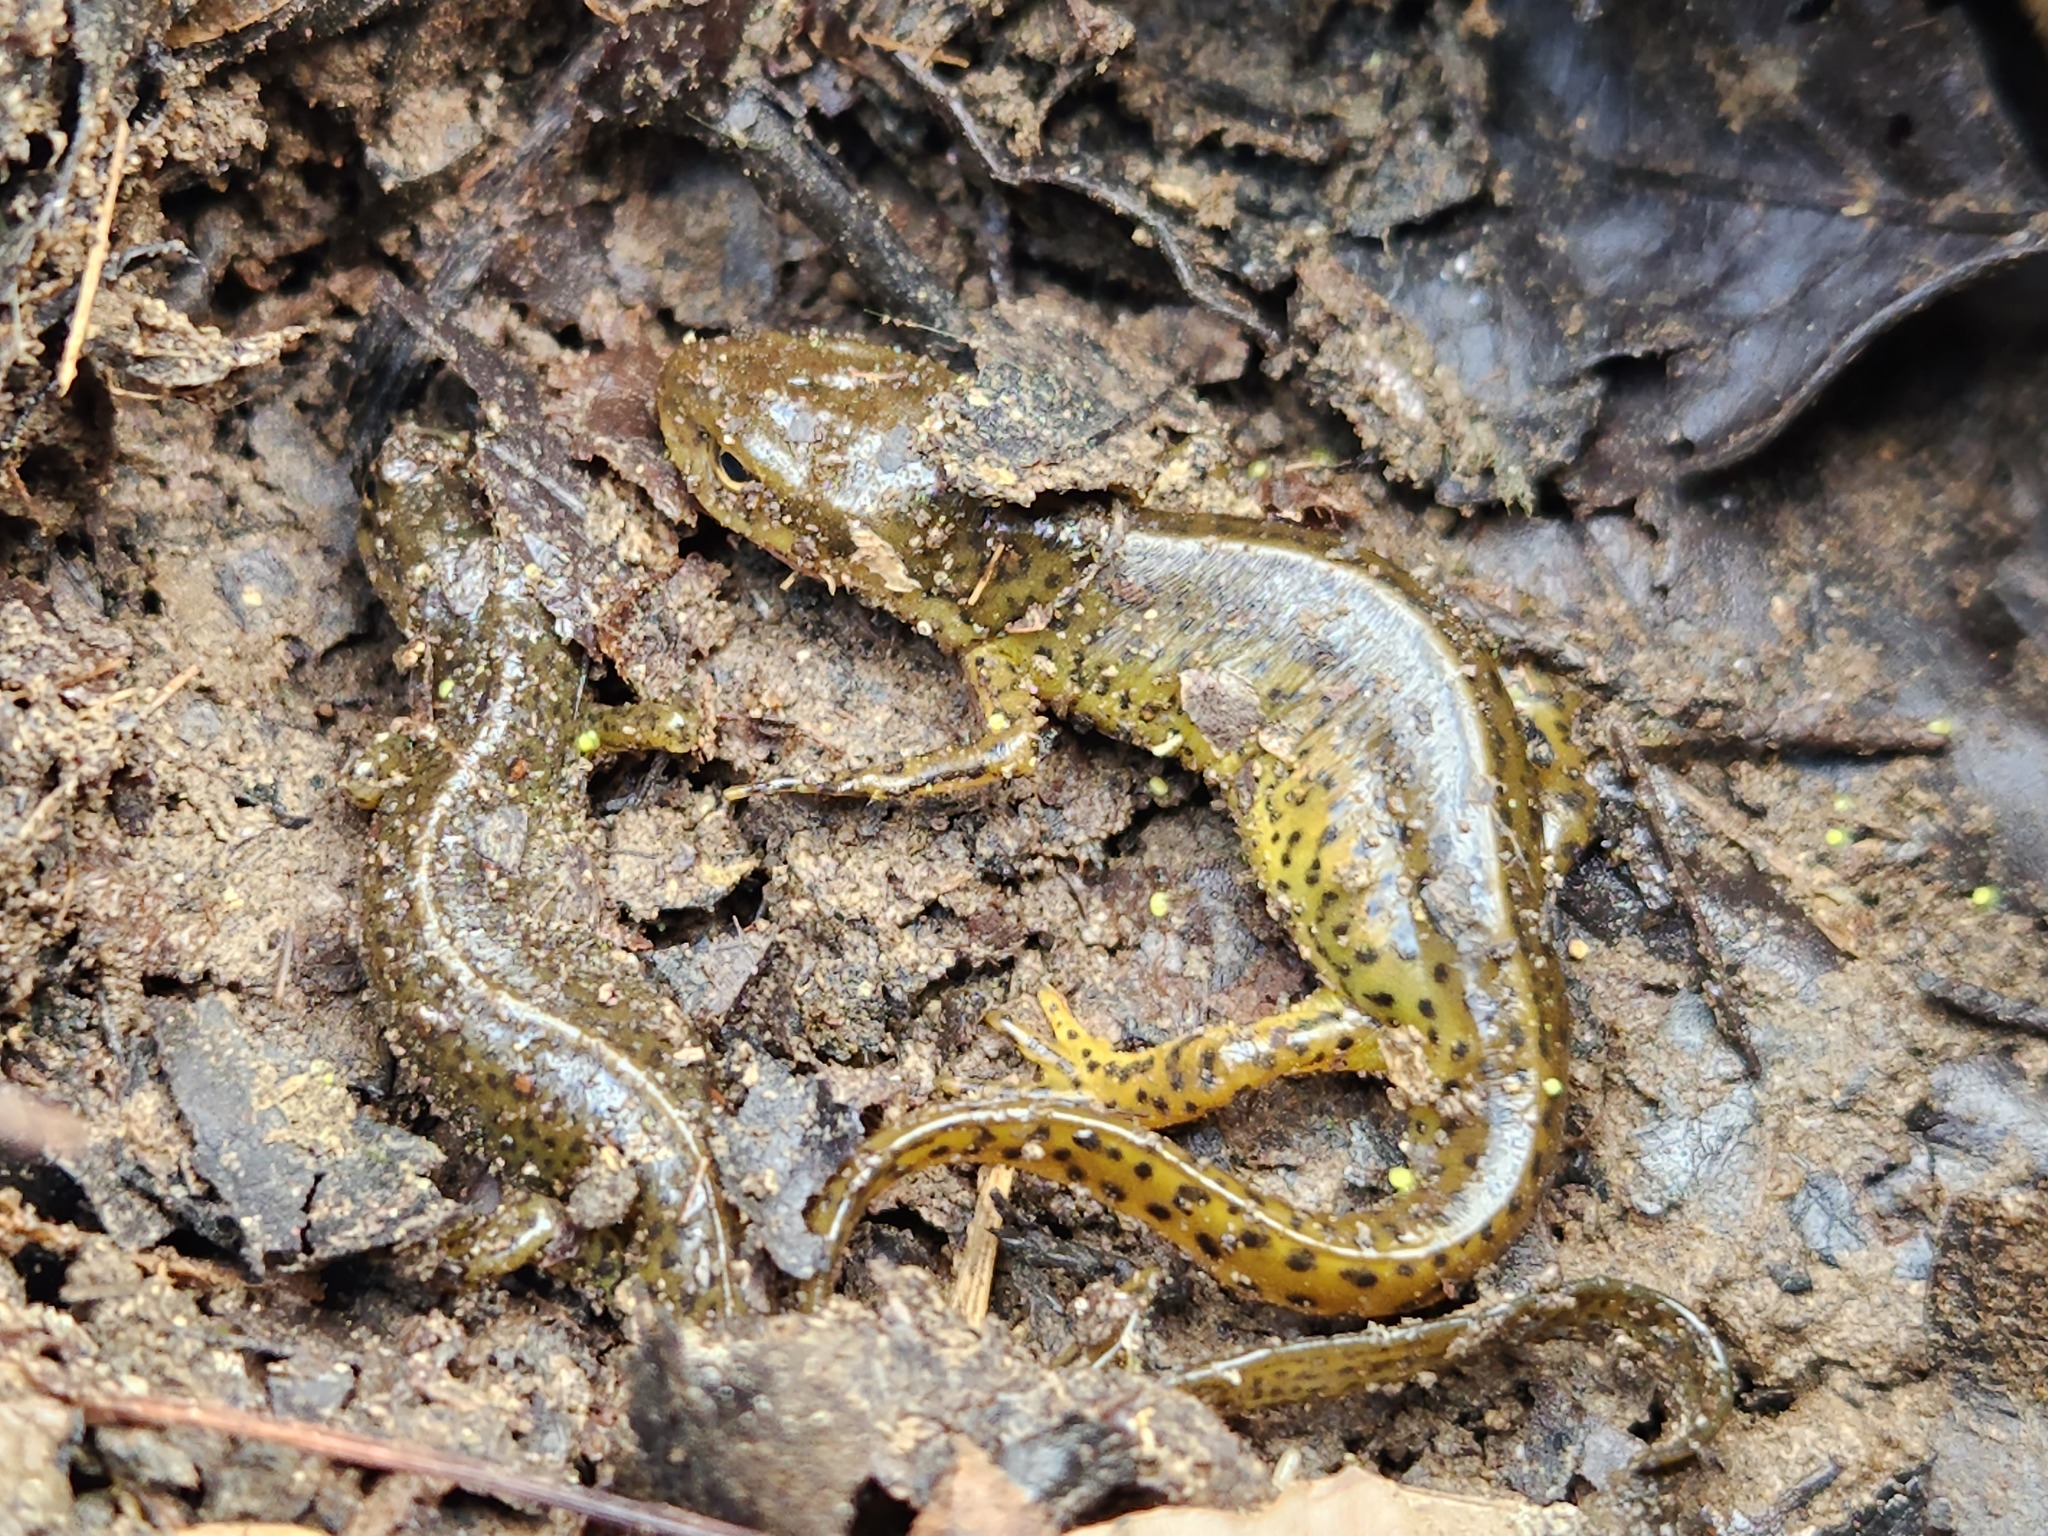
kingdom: Animalia
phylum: Chordata
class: Amphibia
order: Caudata
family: Salamandridae
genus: Notophthalmus
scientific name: Notophthalmus viridescens
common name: Eastern newt
